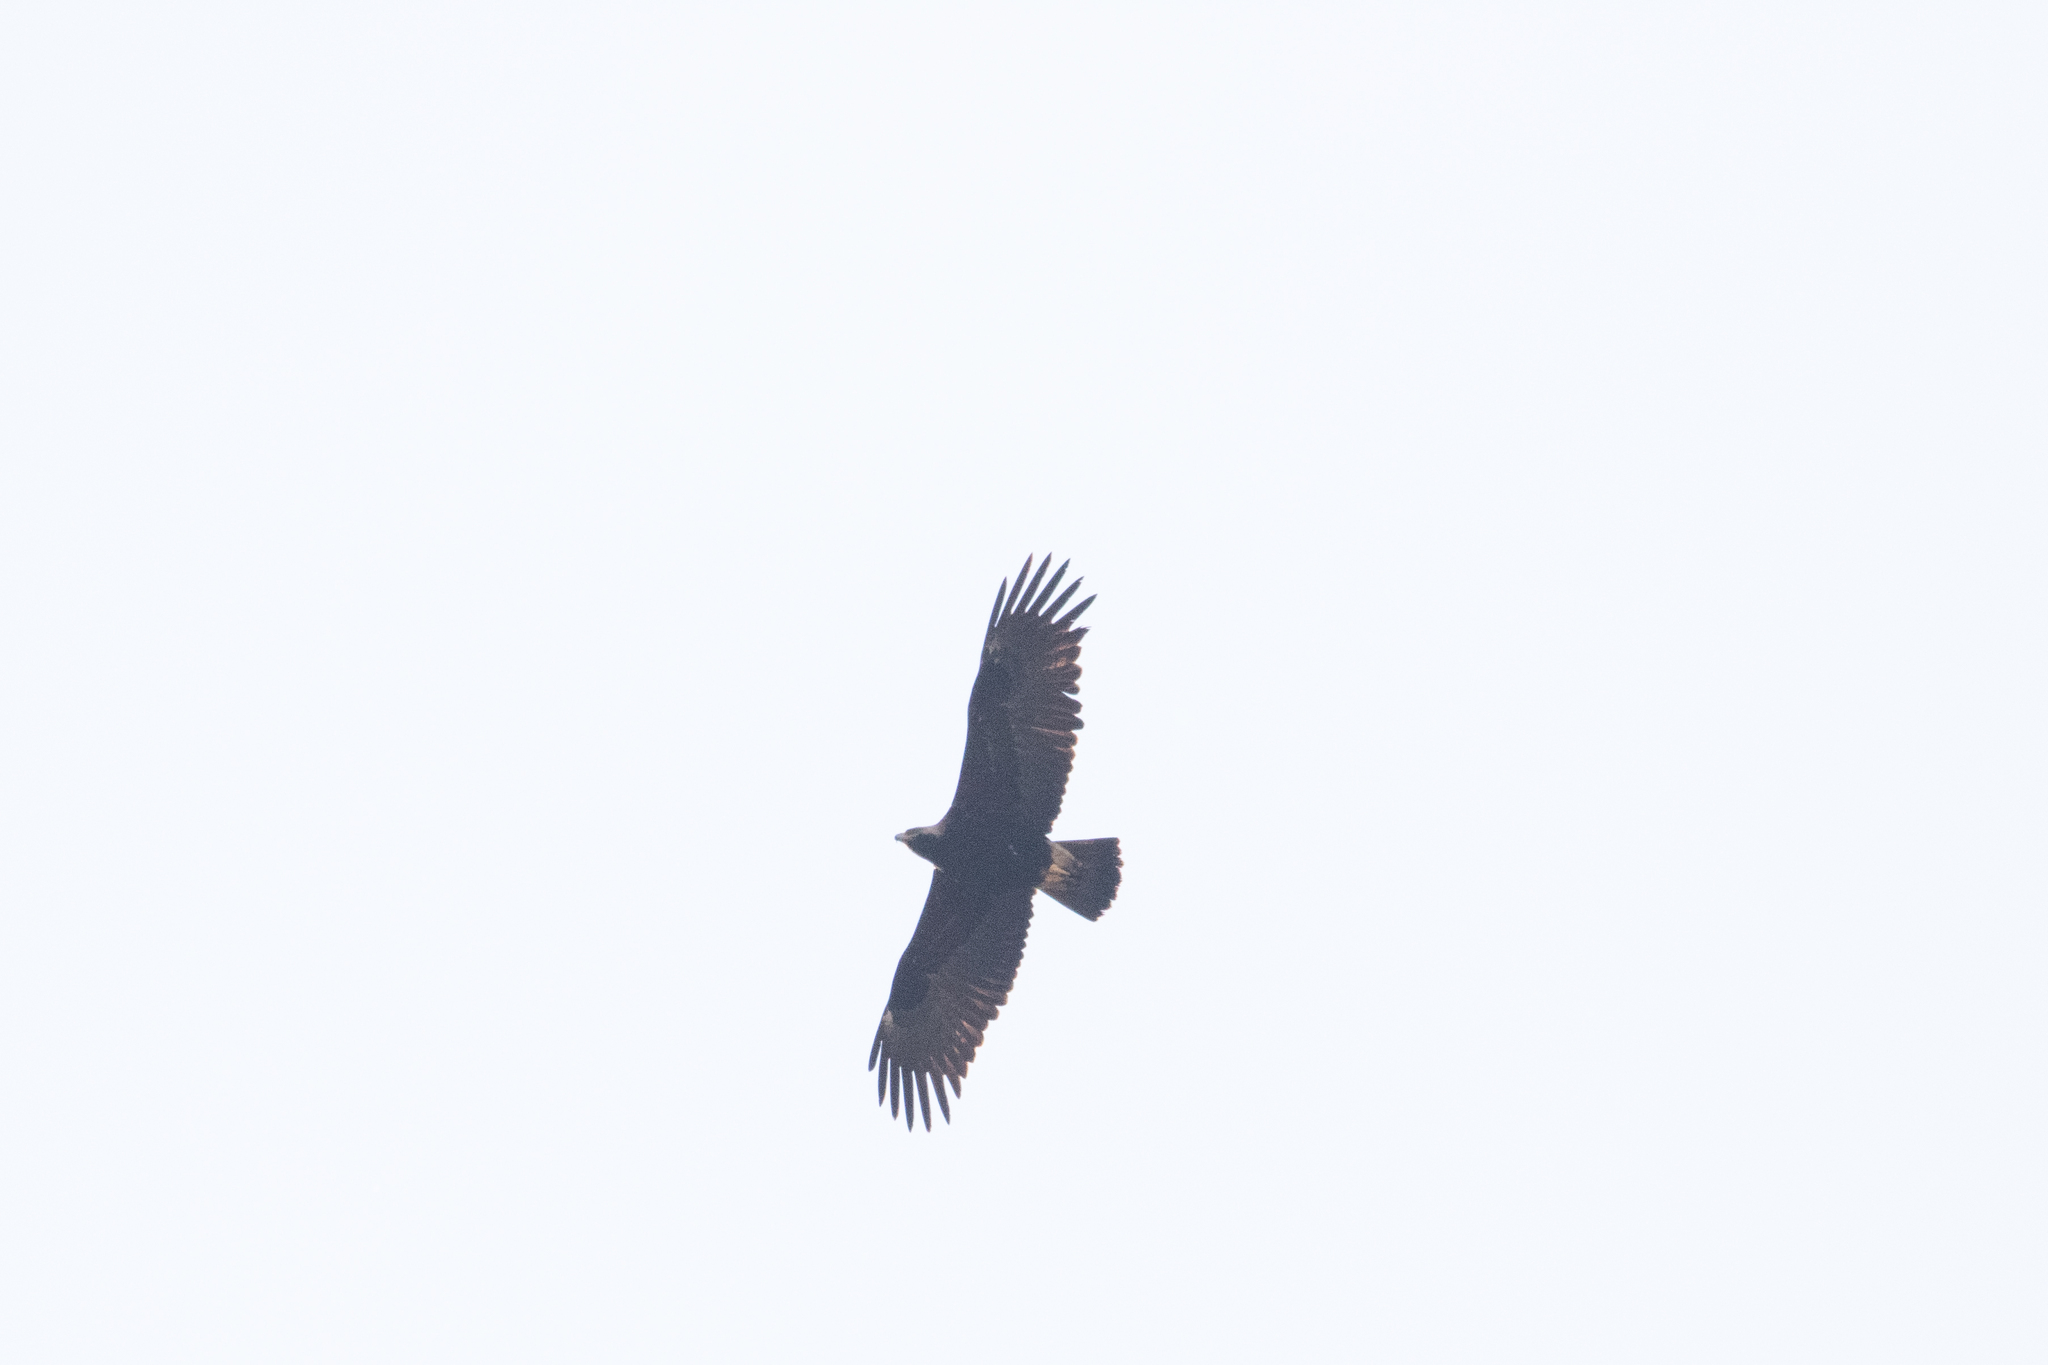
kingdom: Animalia
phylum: Chordata
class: Aves
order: Accipitriformes
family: Accipitridae
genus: Aquila
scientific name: Aquila heliaca
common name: Eastern imperial eagle
